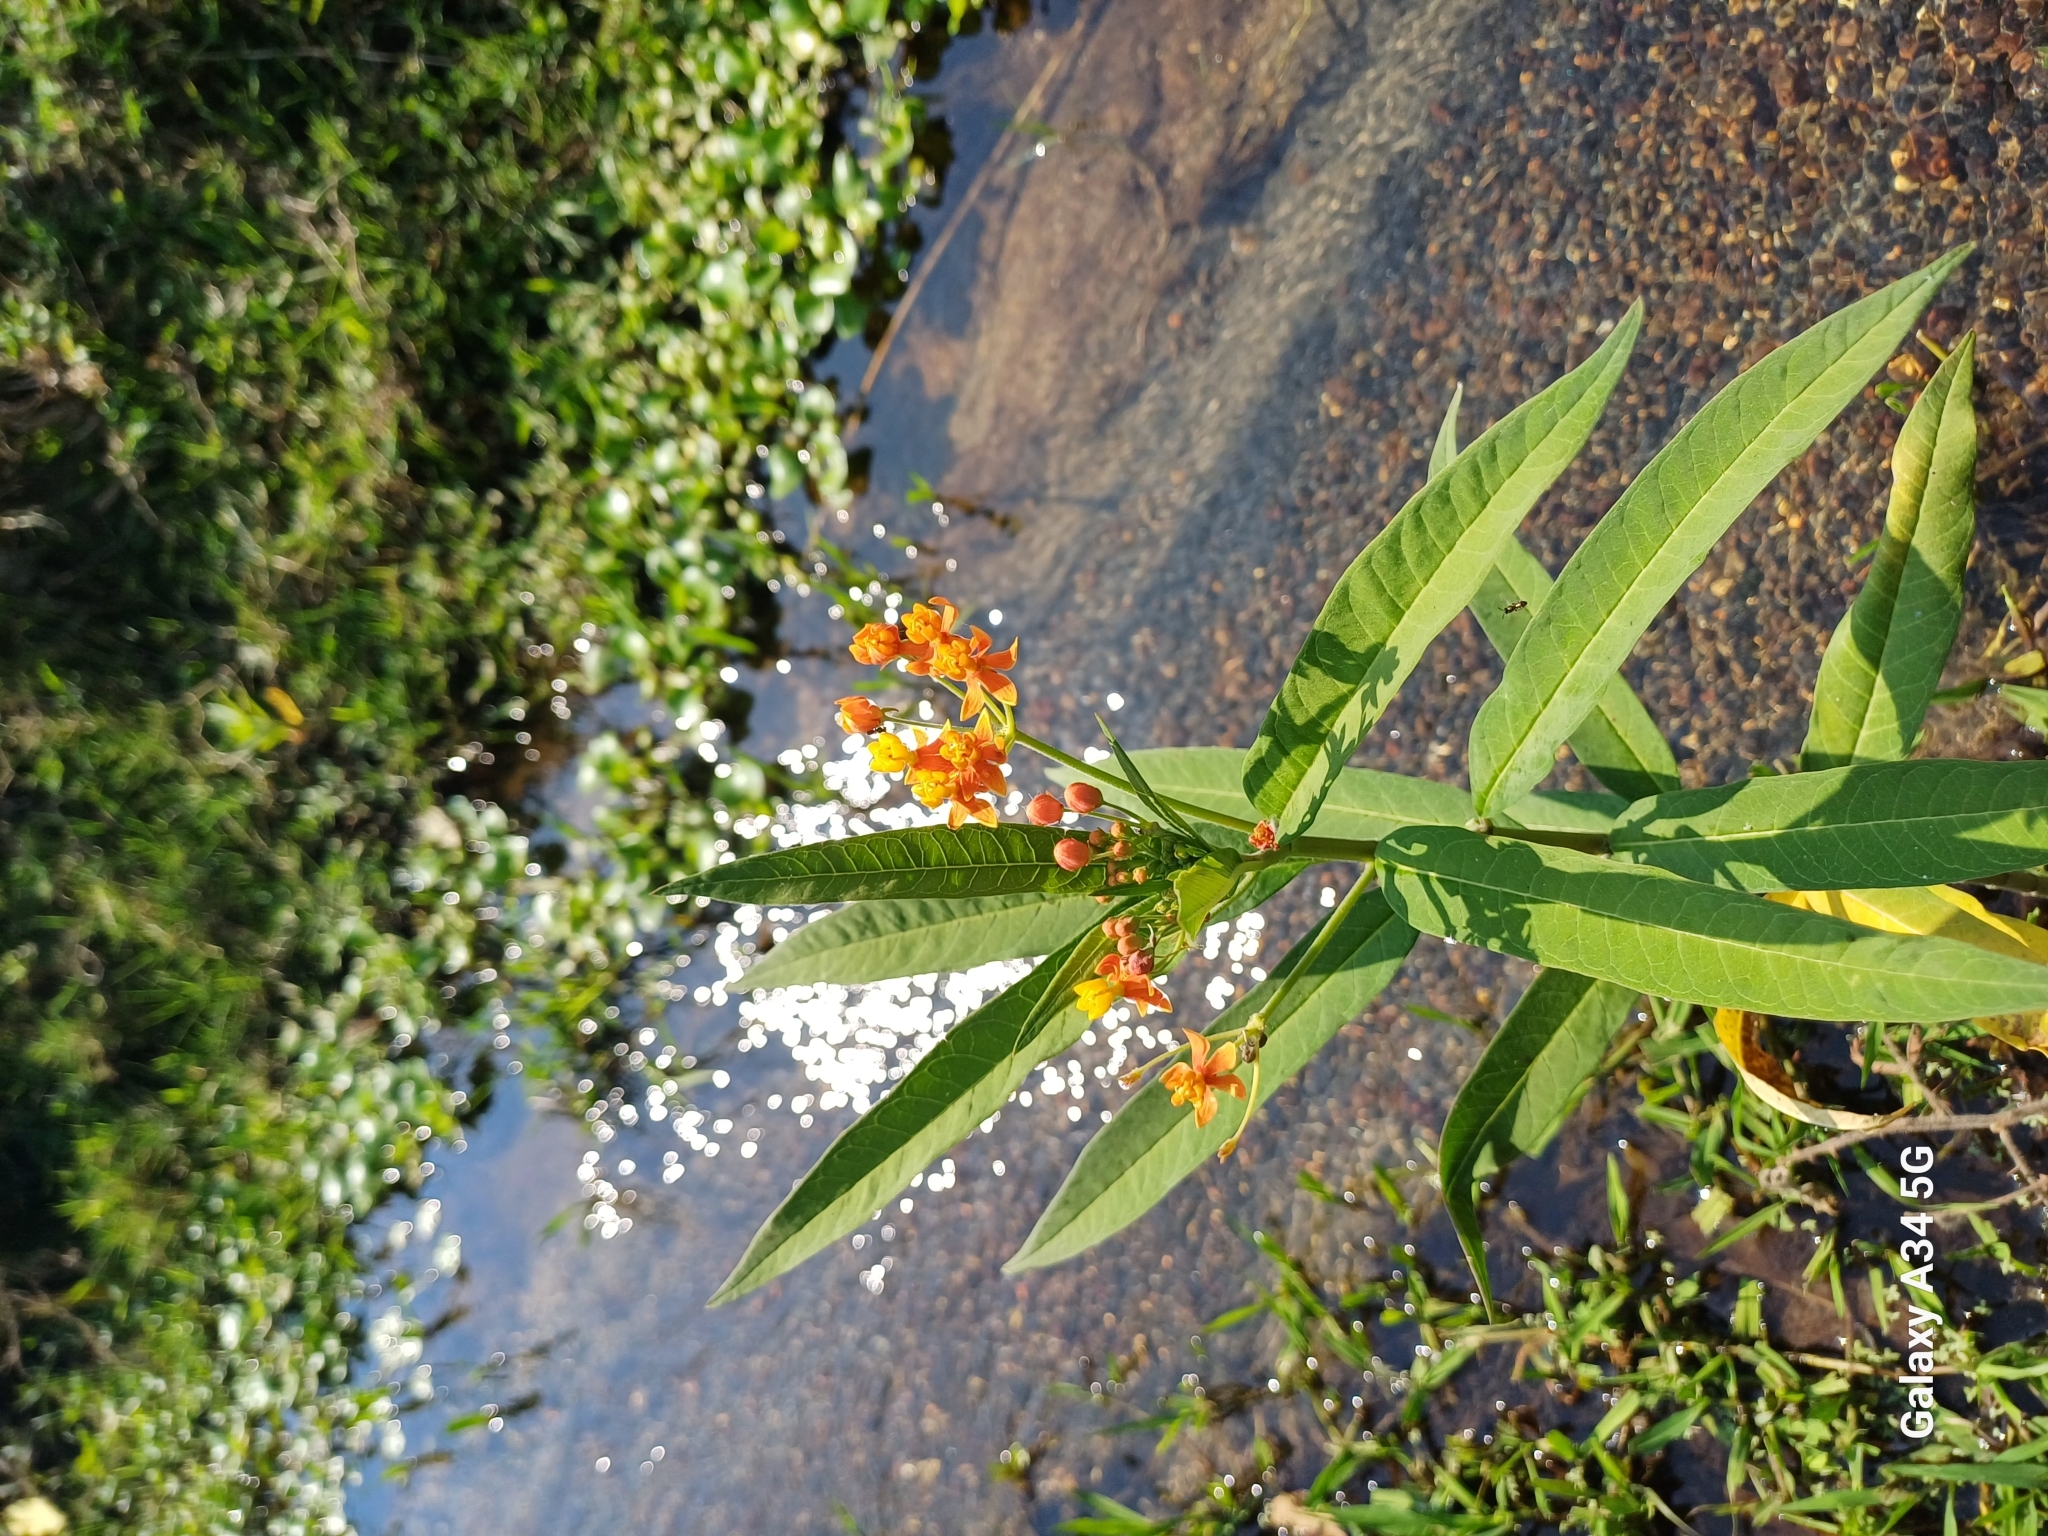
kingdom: Plantae
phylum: Tracheophyta
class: Magnoliopsida
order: Gentianales
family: Apocynaceae
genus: Asclepias
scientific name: Asclepias curassavica
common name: Bloodflower
